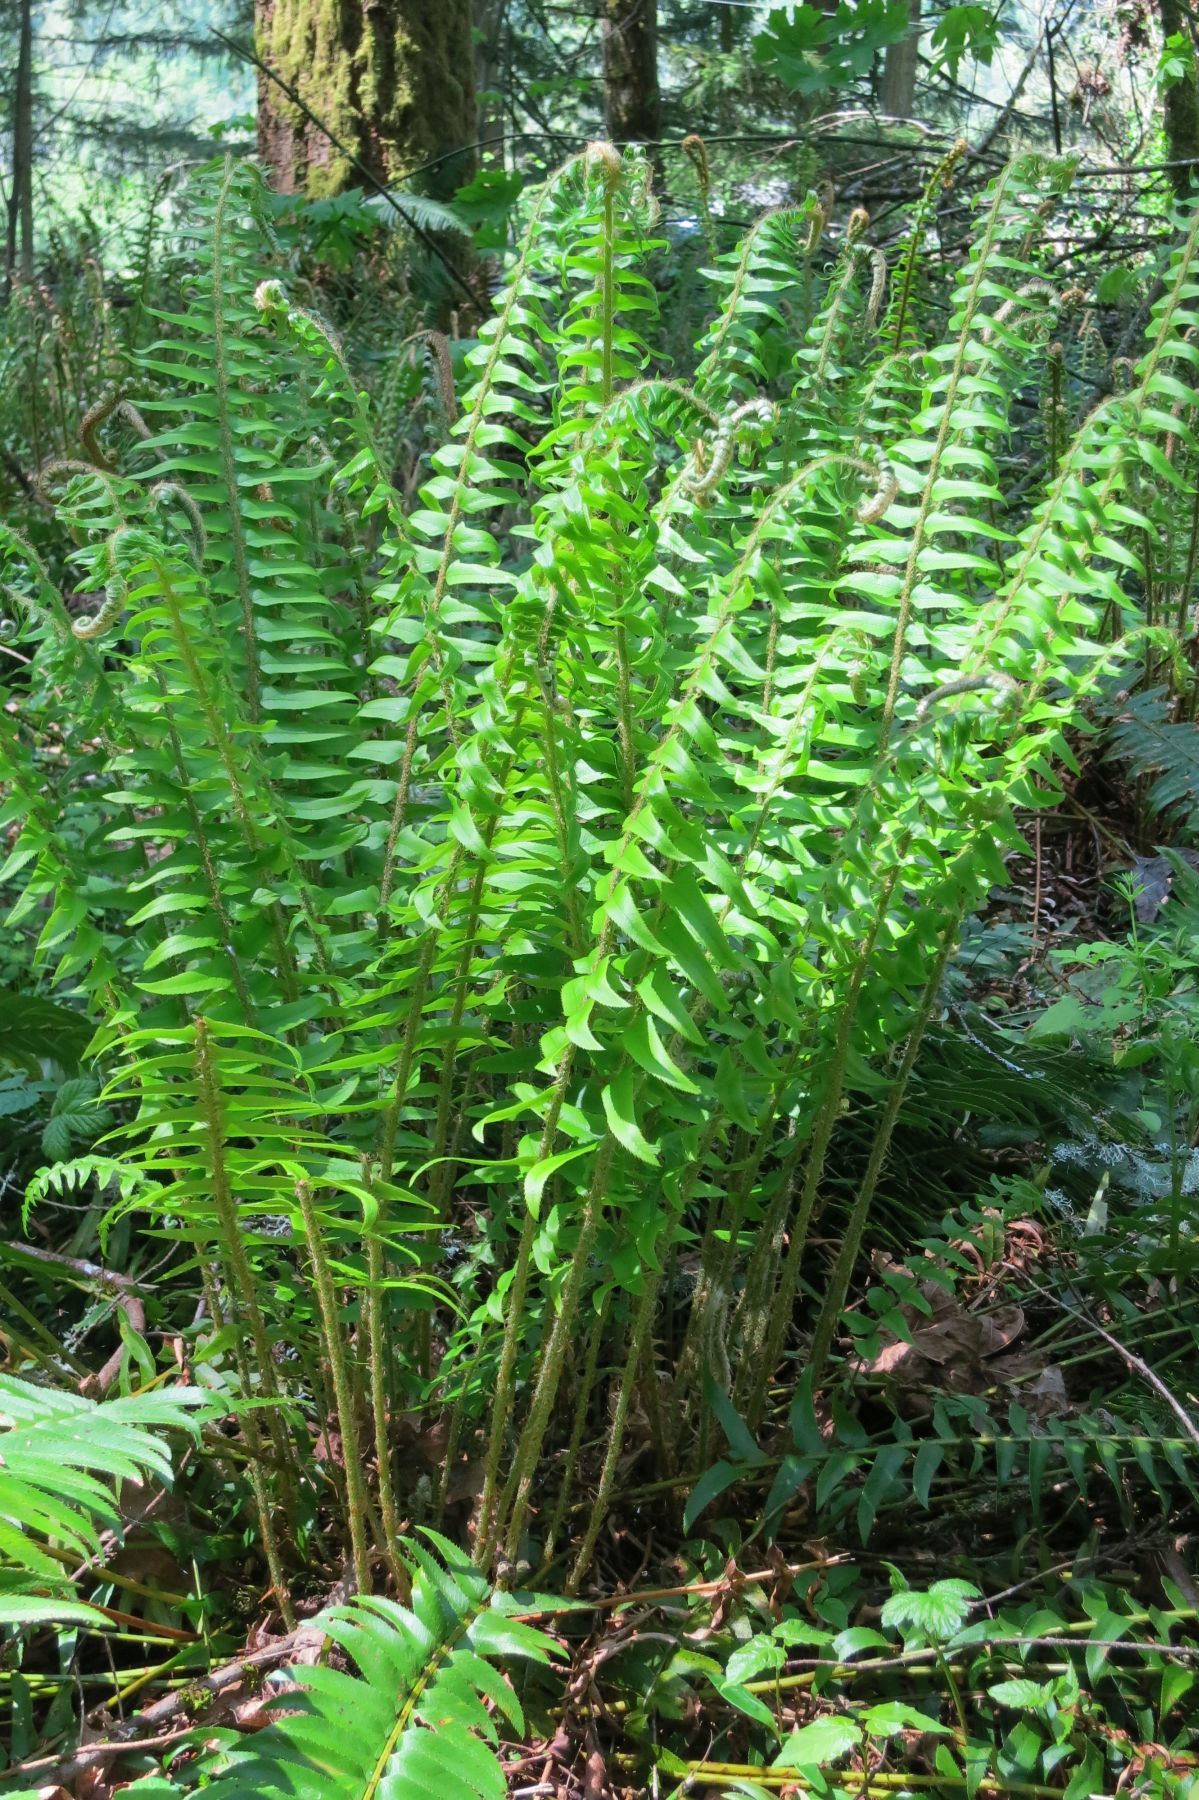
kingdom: Plantae
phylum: Tracheophyta
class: Polypodiopsida
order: Polypodiales
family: Dryopteridaceae
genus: Polystichum
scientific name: Polystichum munitum
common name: Western sword-fern
